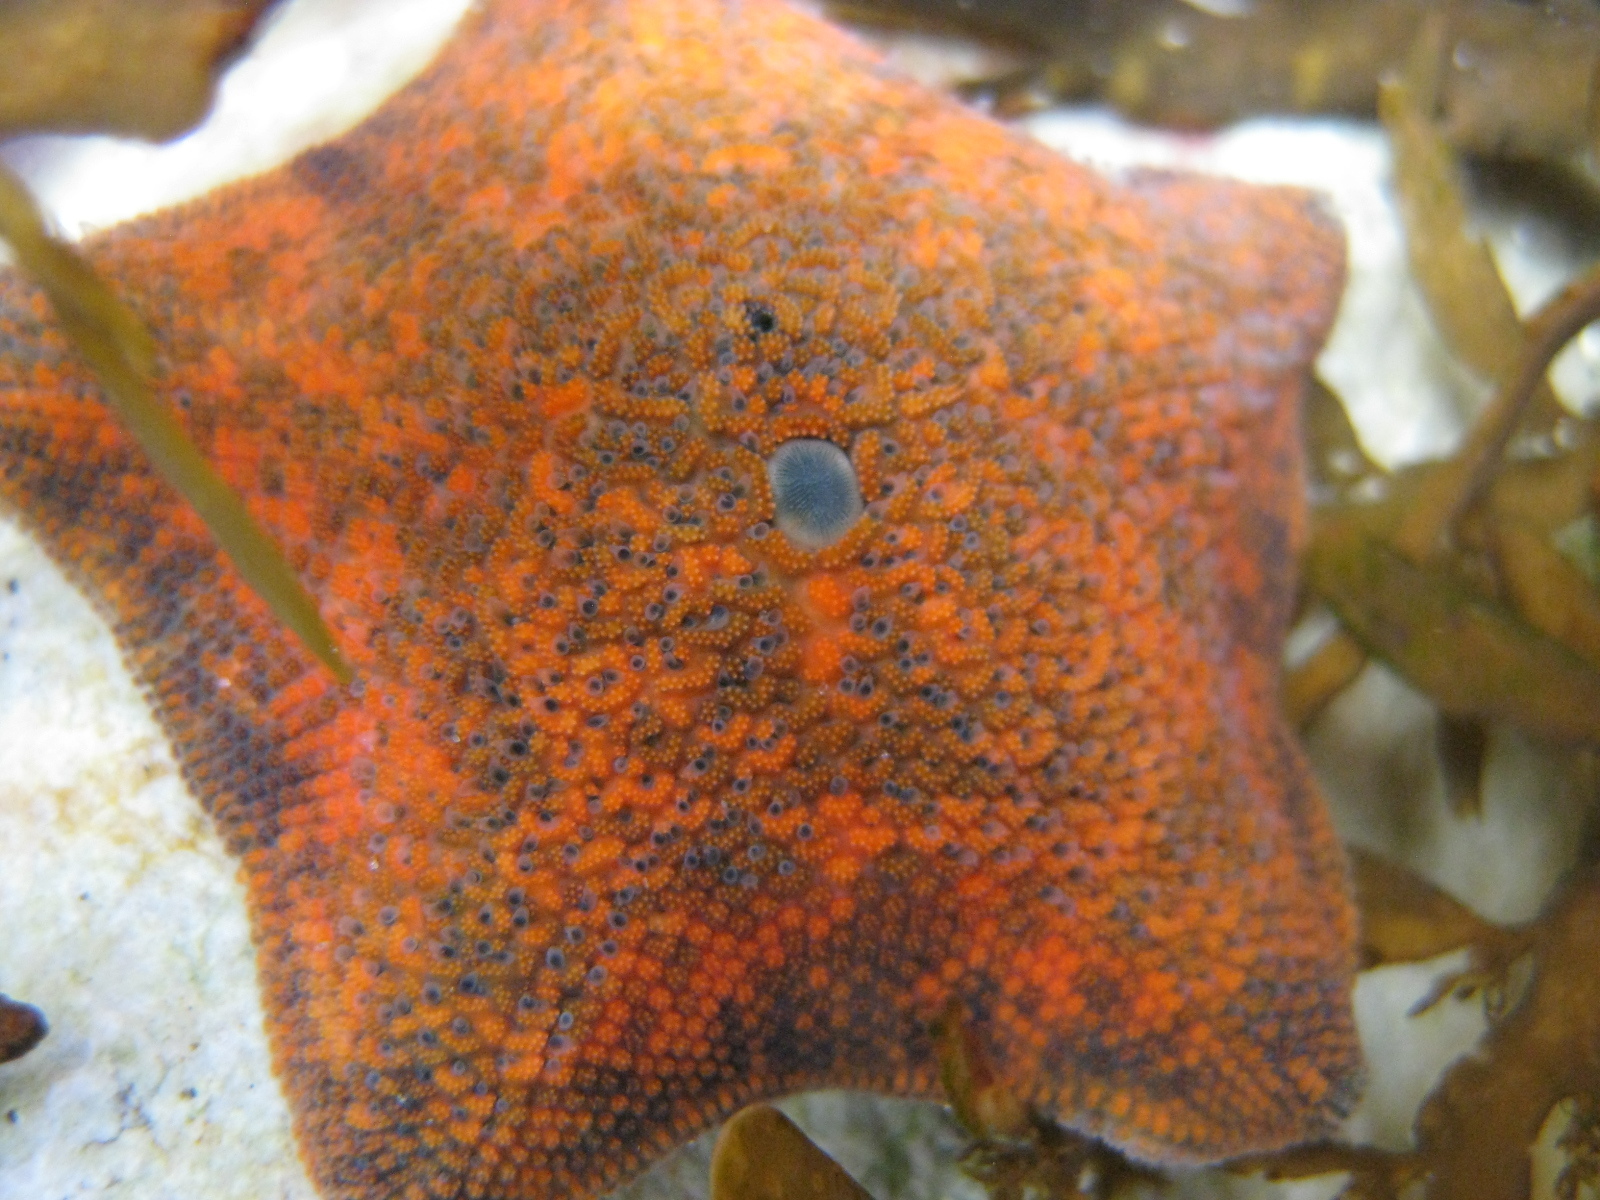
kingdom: Animalia
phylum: Echinodermata
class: Asteroidea
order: Valvatida
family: Asterinidae
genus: Patiriella
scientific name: Patiriella regularis
